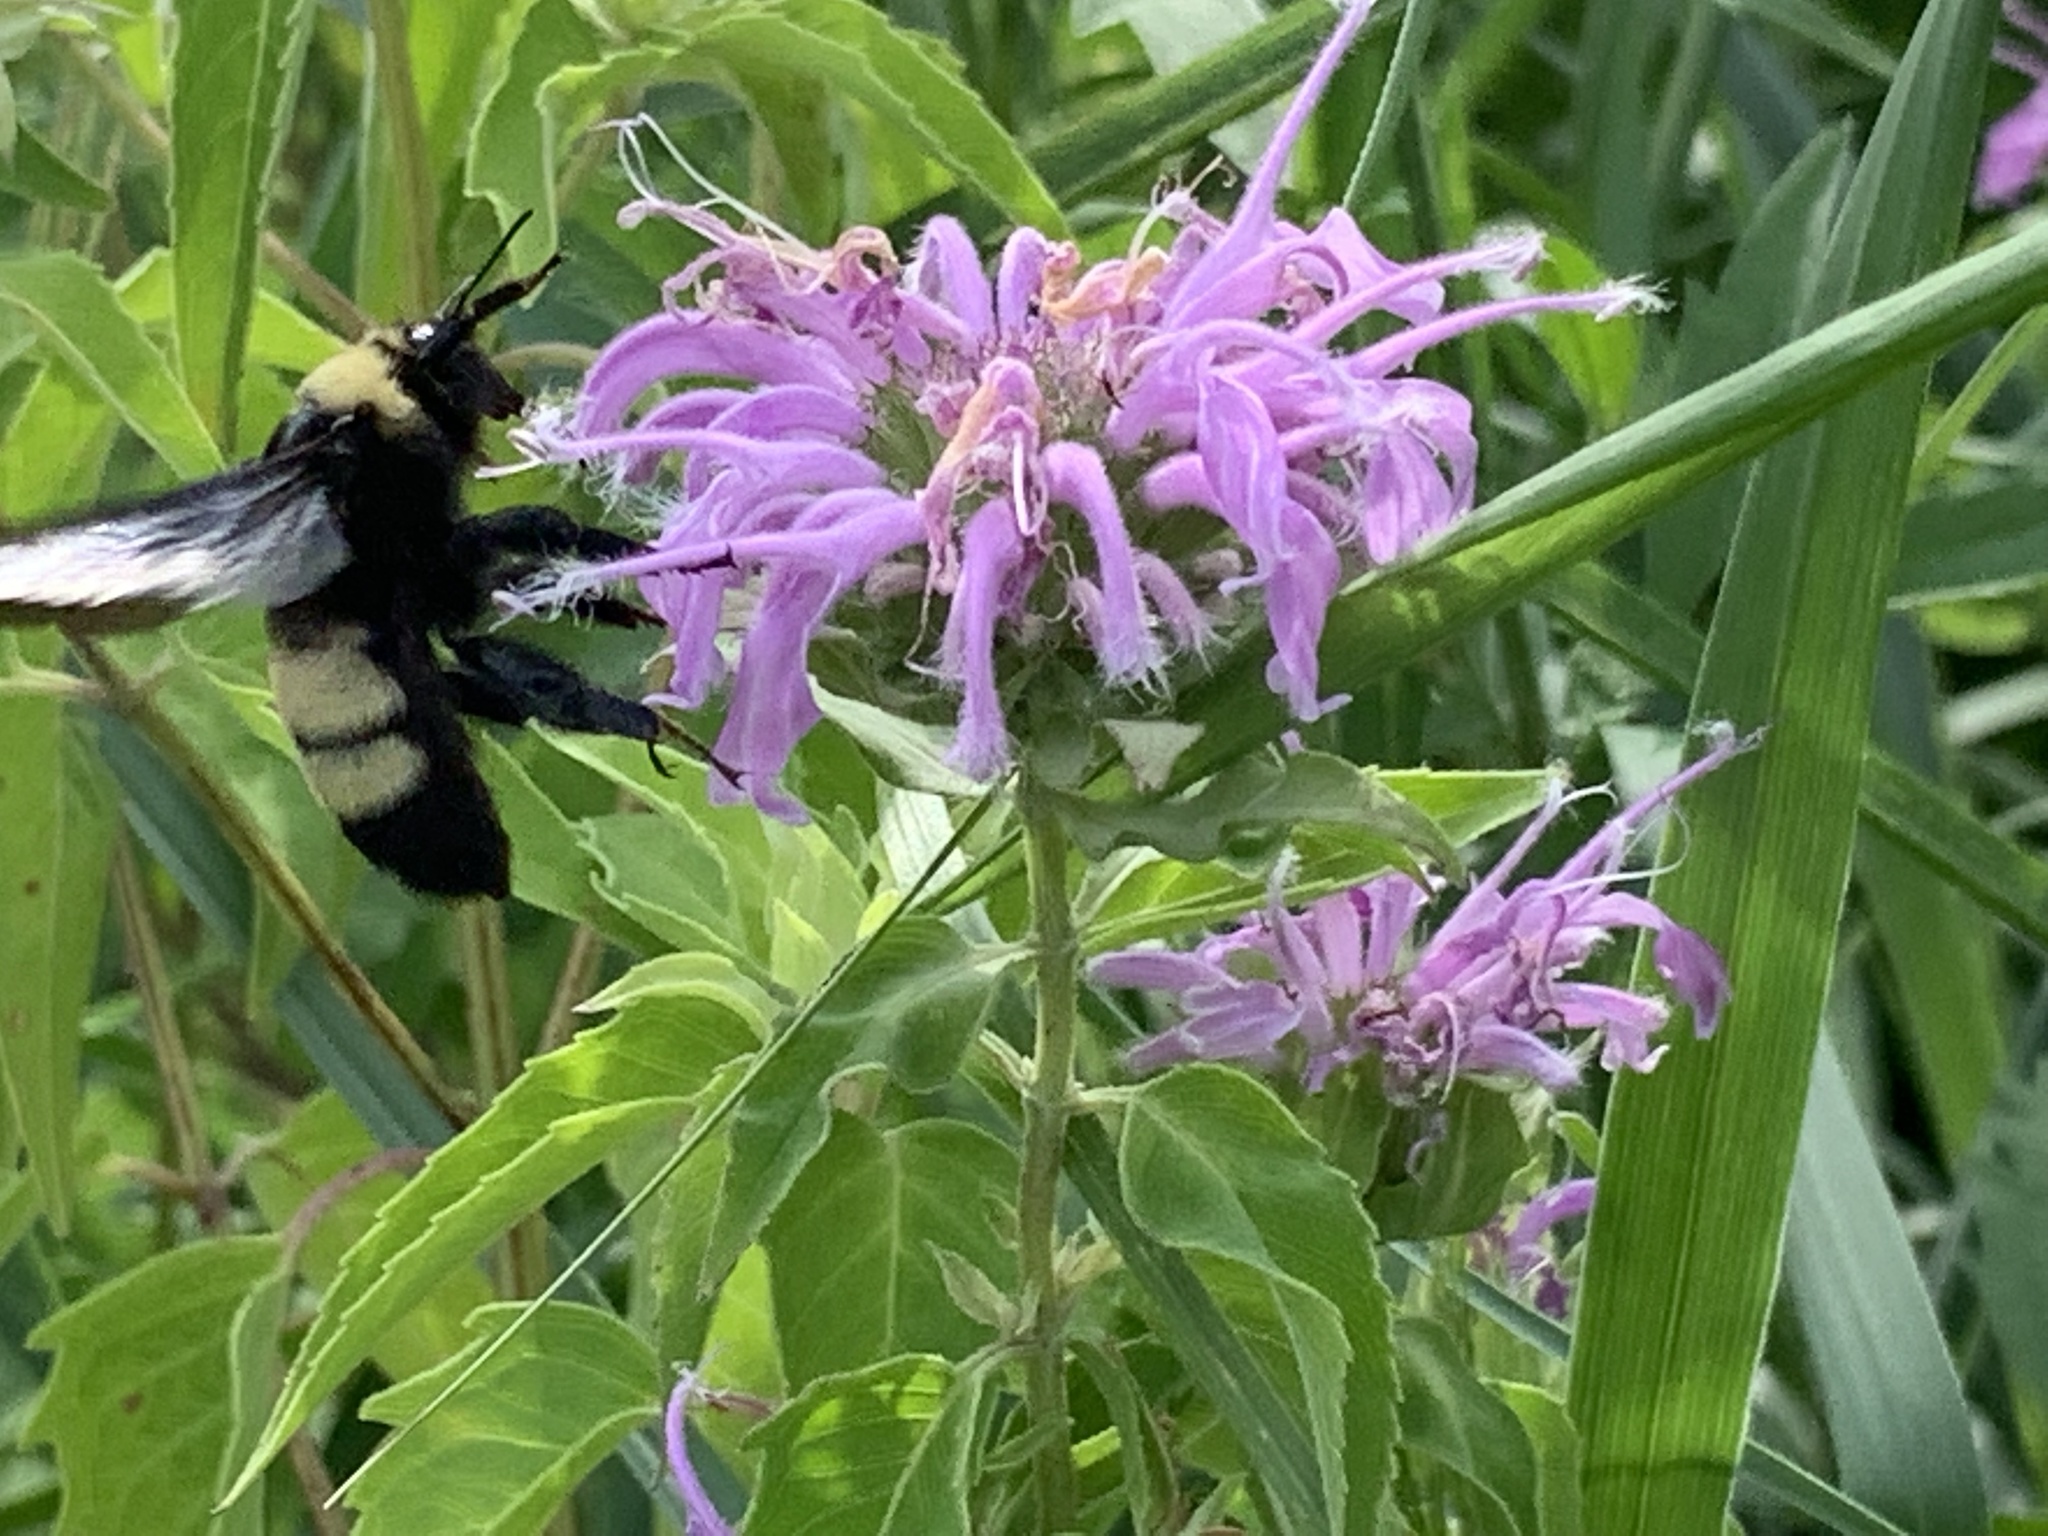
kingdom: Animalia
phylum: Arthropoda
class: Insecta
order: Hymenoptera
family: Apidae
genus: Bombus
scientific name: Bombus auricomus
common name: Black and gold bumble bee
